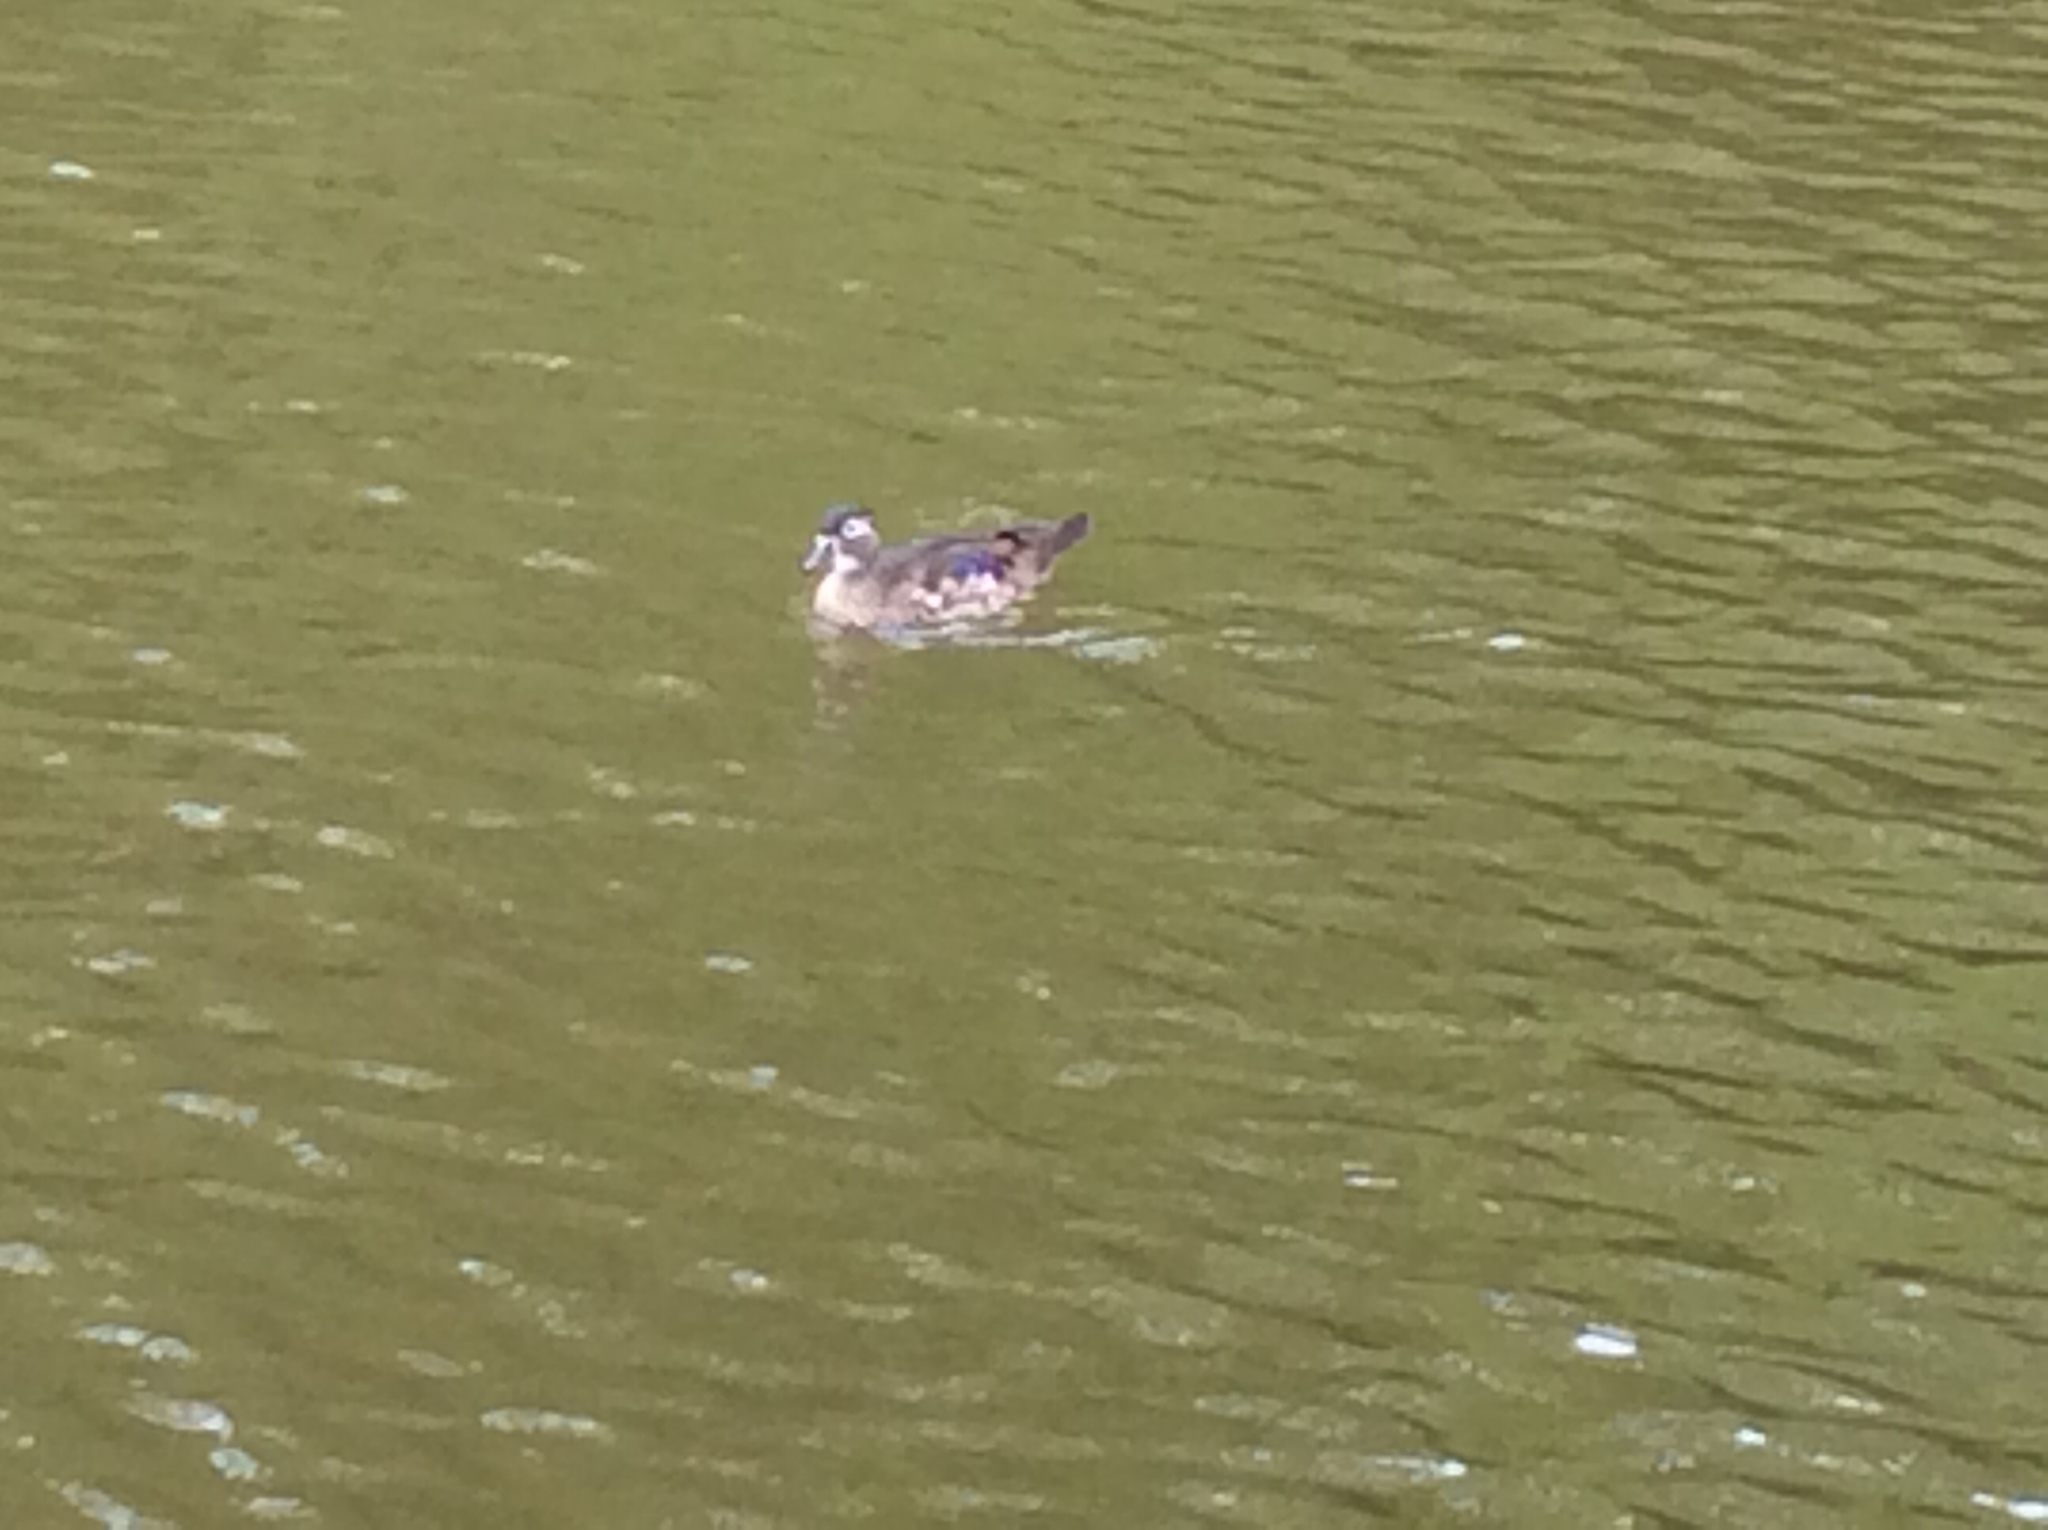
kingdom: Animalia
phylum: Chordata
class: Aves
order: Anseriformes
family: Anatidae
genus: Aix
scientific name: Aix sponsa
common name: Wood duck
